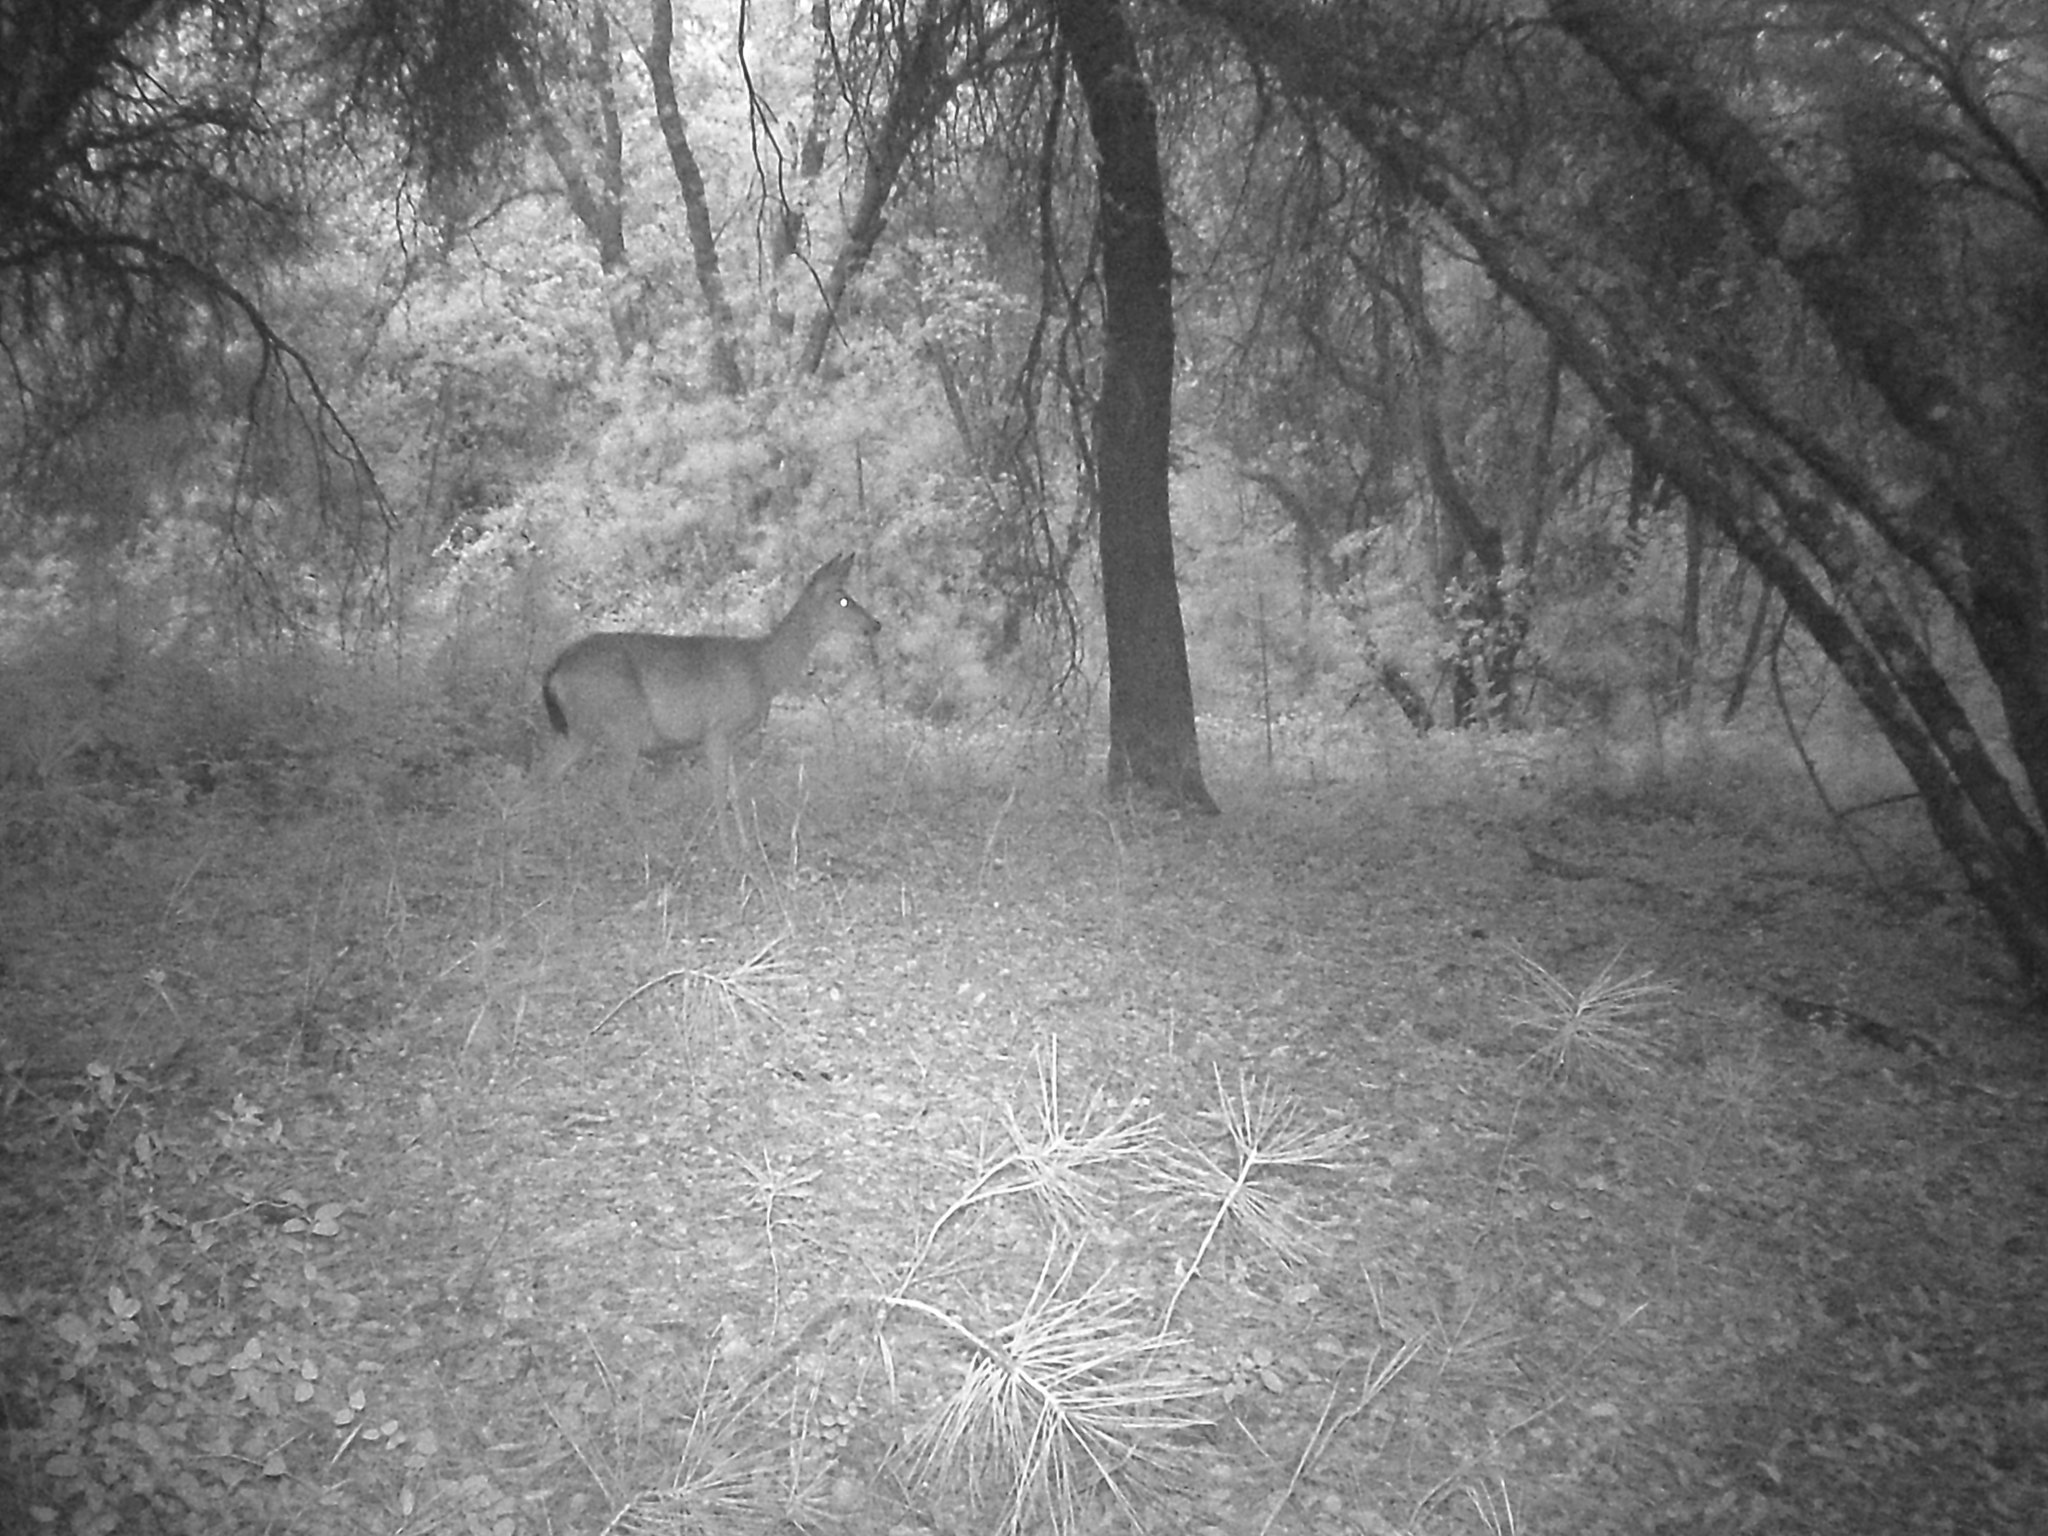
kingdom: Animalia
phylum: Chordata
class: Mammalia
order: Artiodactyla
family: Cervidae
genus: Odocoileus
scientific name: Odocoileus hemionus
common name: Mule deer
